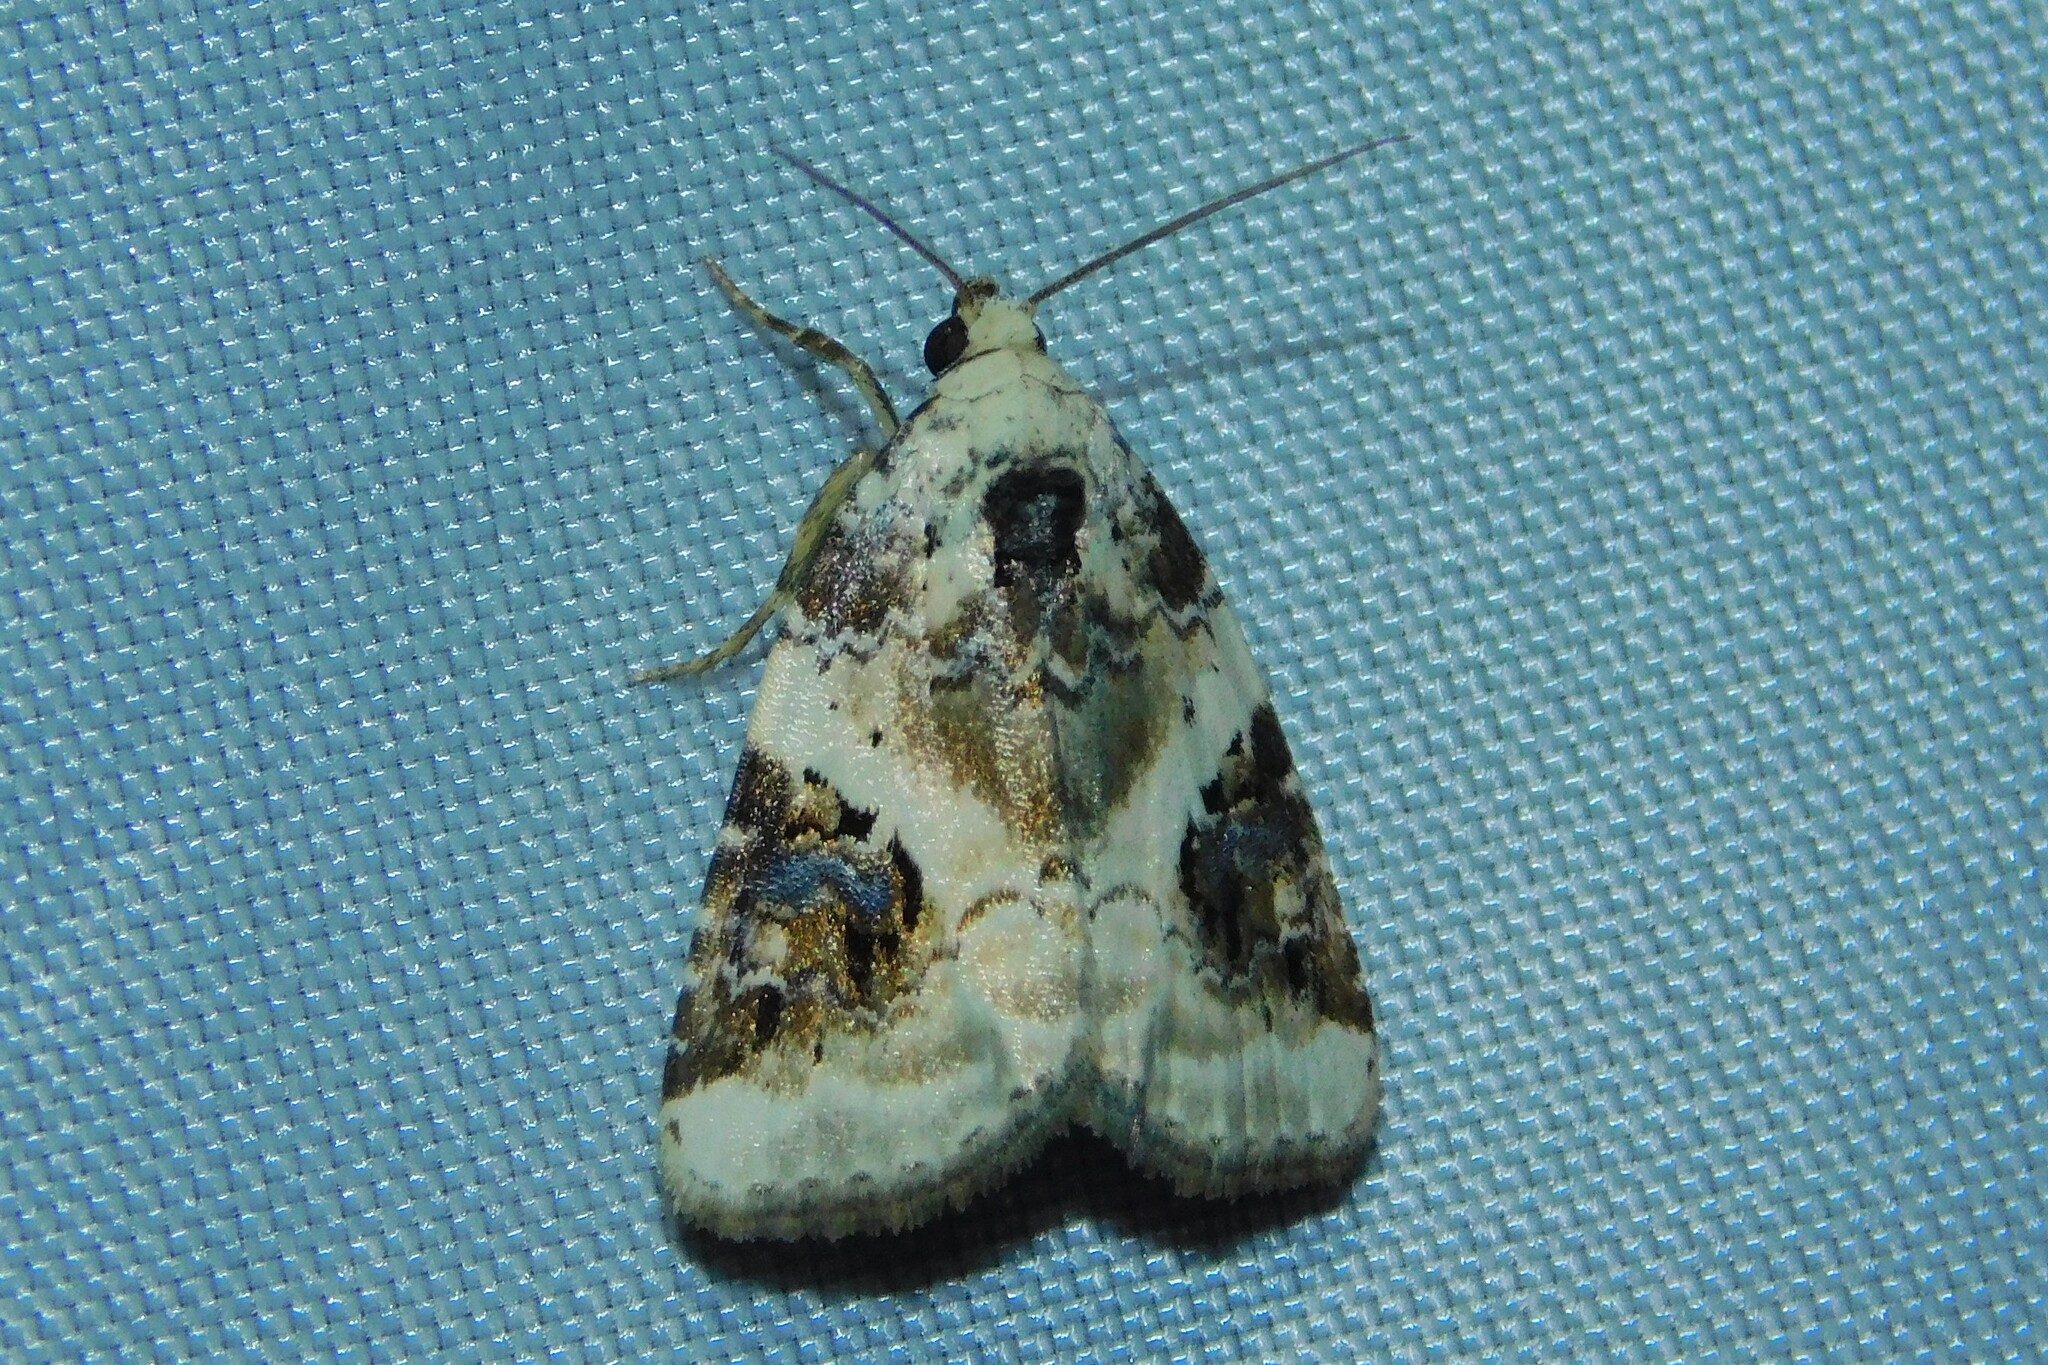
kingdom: Animalia
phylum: Arthropoda
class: Insecta
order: Lepidoptera
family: Noctuidae
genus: Pseudeustrotia
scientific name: Pseudeustrotia candidula
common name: Shining marbled
